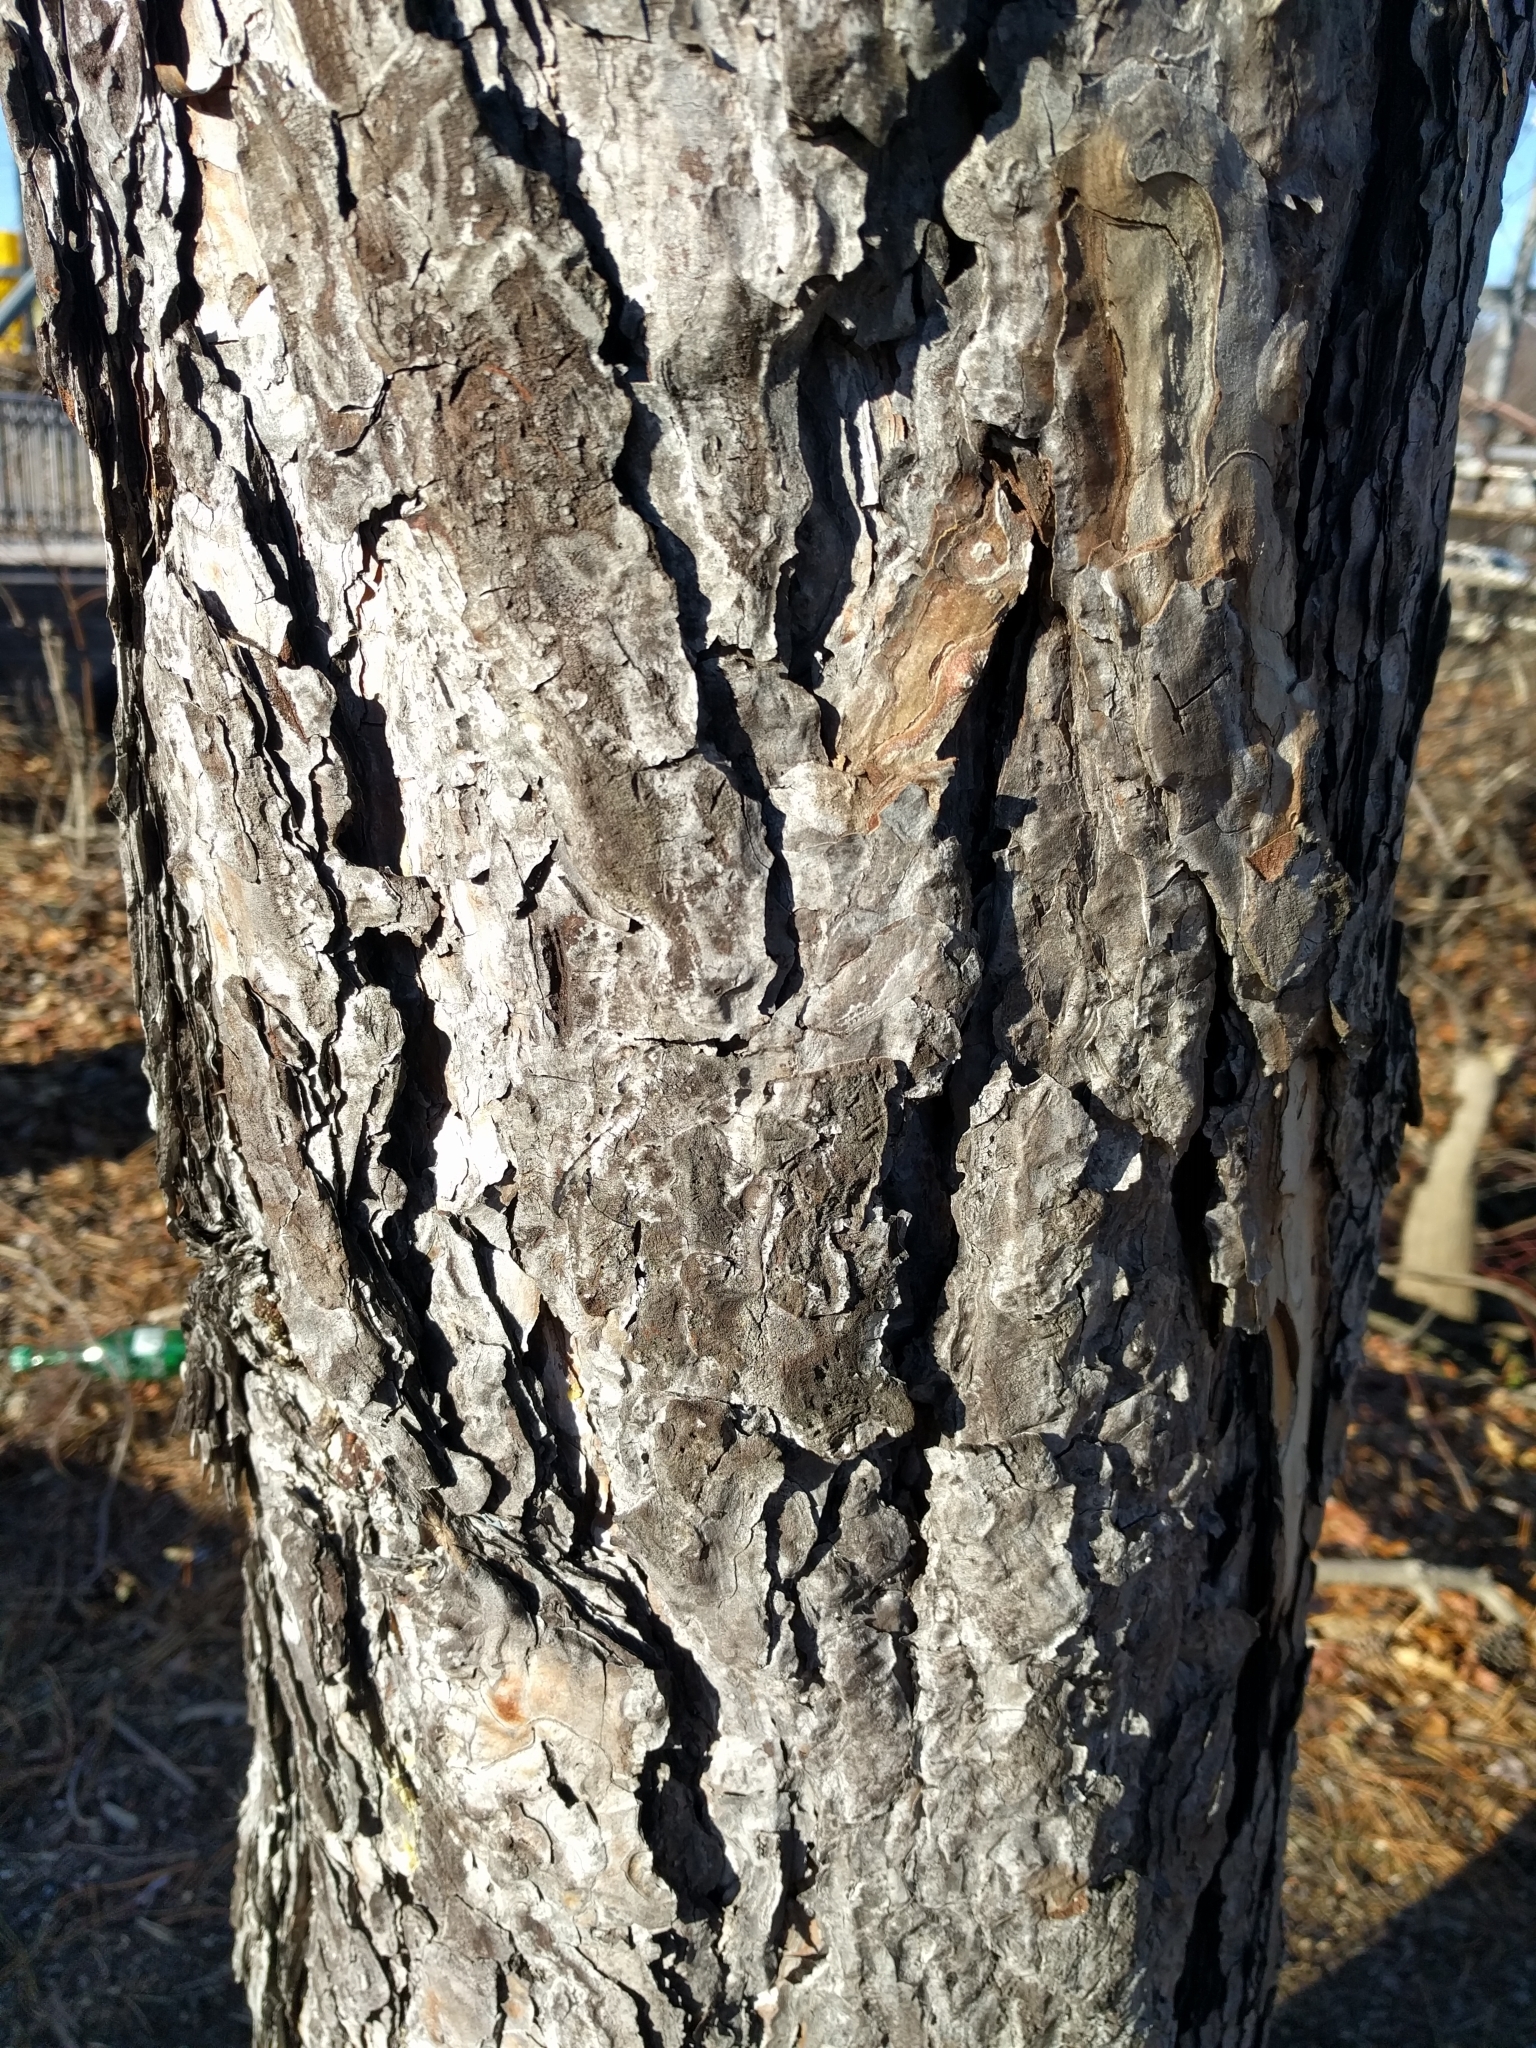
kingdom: Plantae
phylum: Tracheophyta
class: Pinopsida
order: Pinales
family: Pinaceae
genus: Pinus
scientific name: Pinus resinosa
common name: Norway pine
